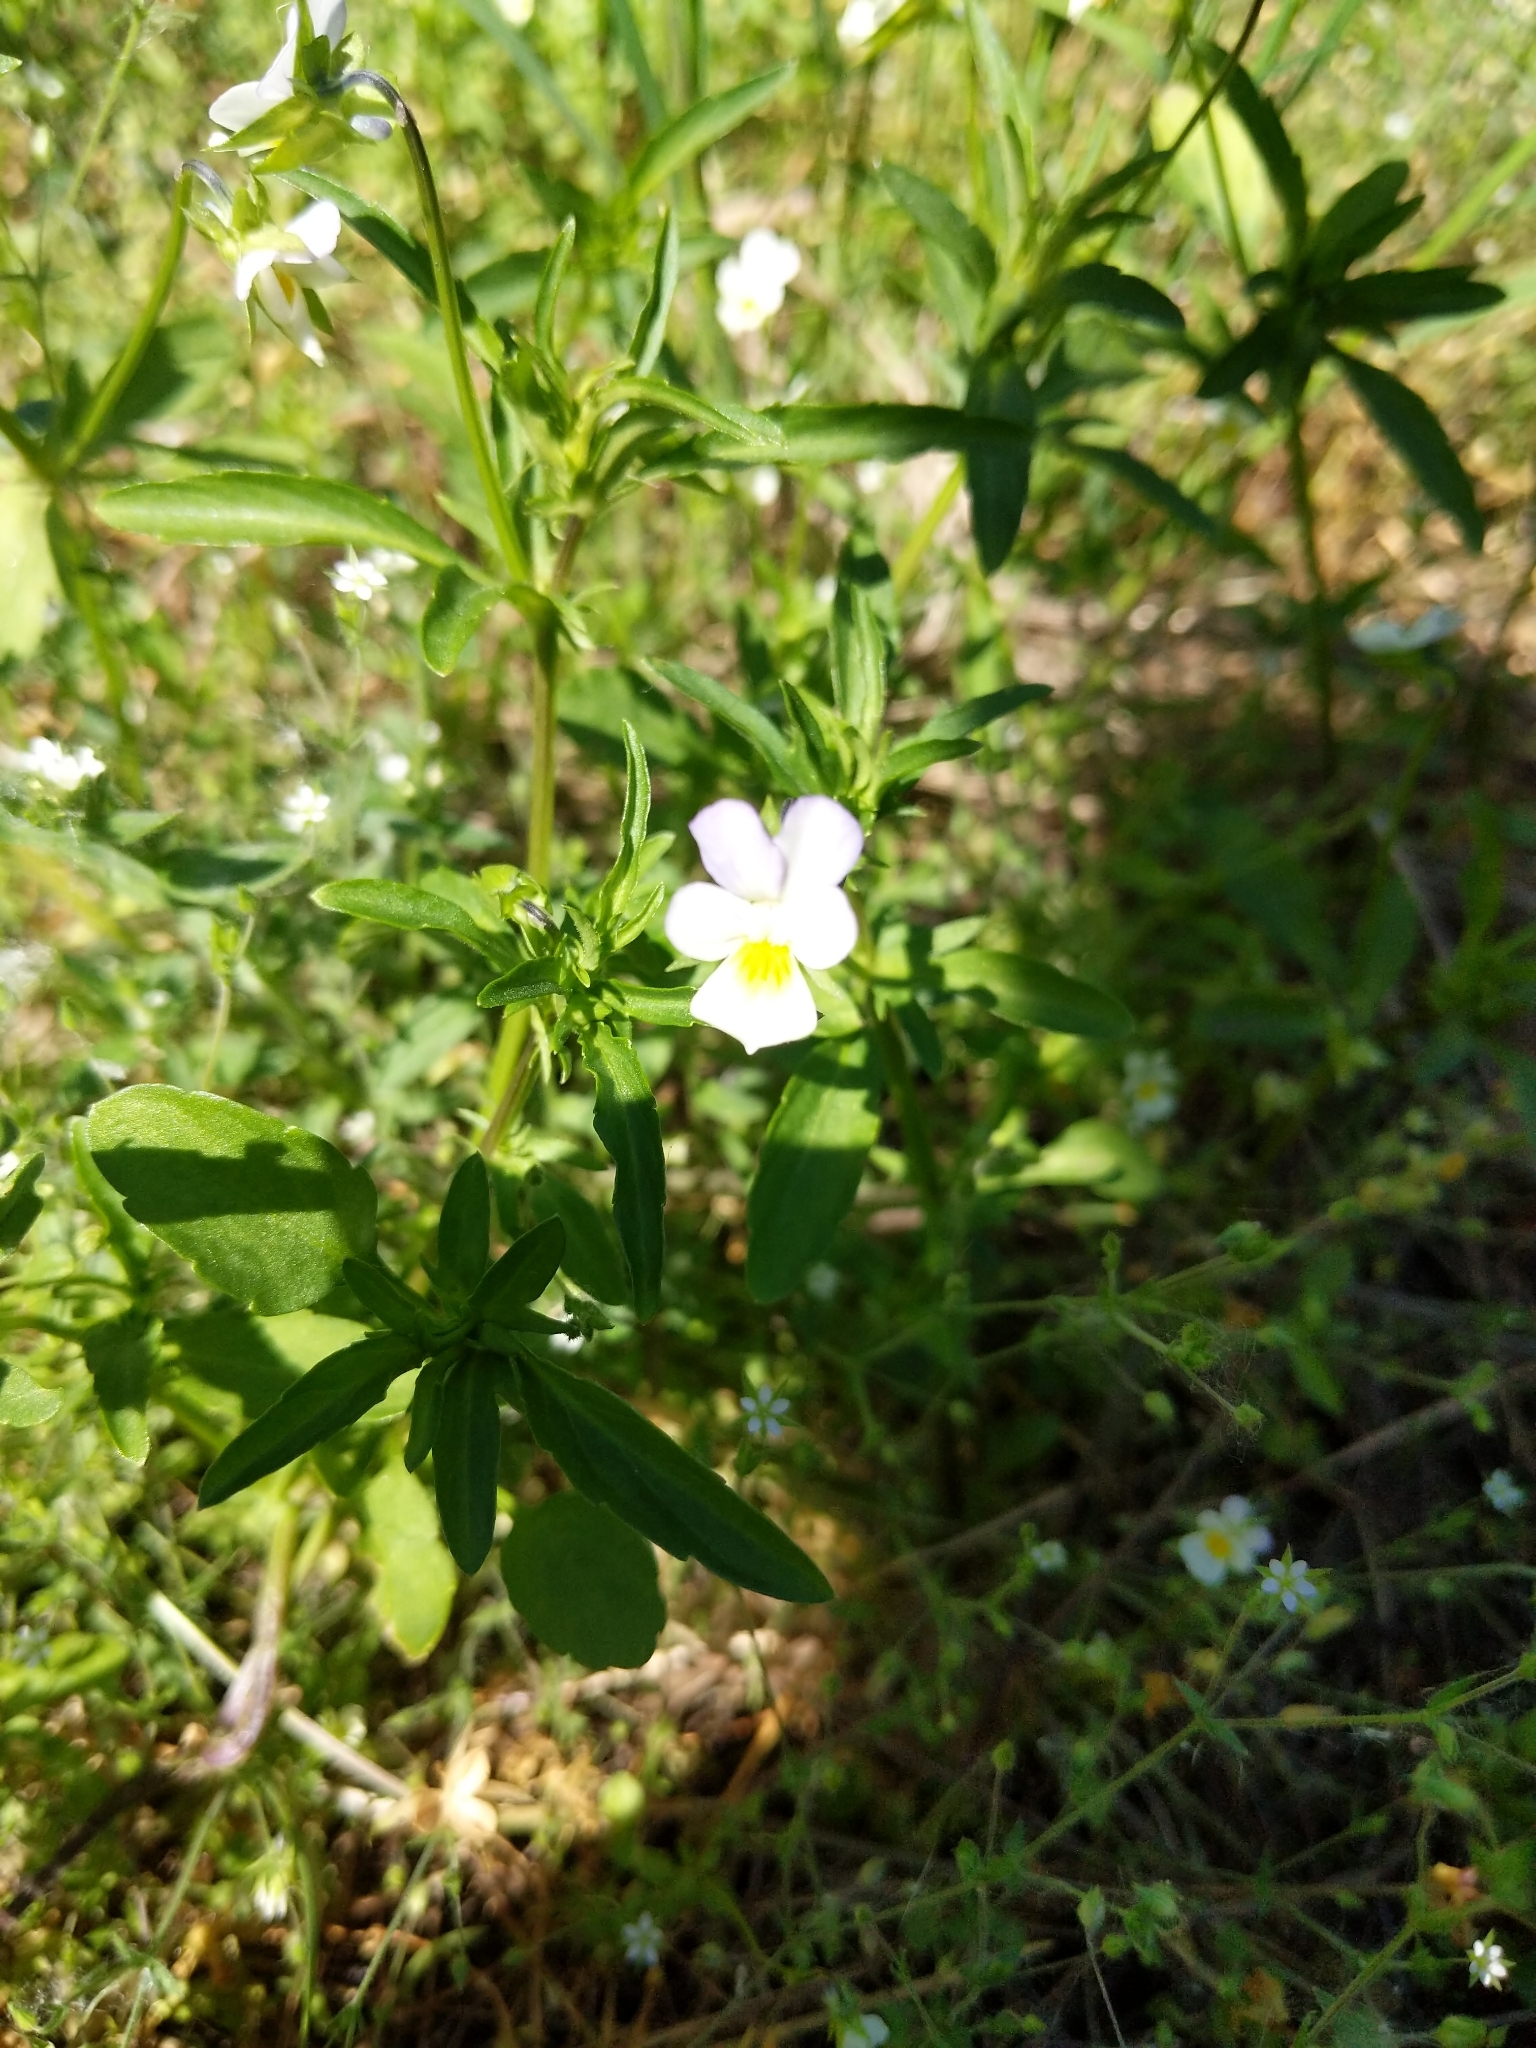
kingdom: Plantae
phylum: Tracheophyta
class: Magnoliopsida
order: Malpighiales
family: Violaceae
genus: Viola
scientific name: Viola arvensis
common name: Field pansy
